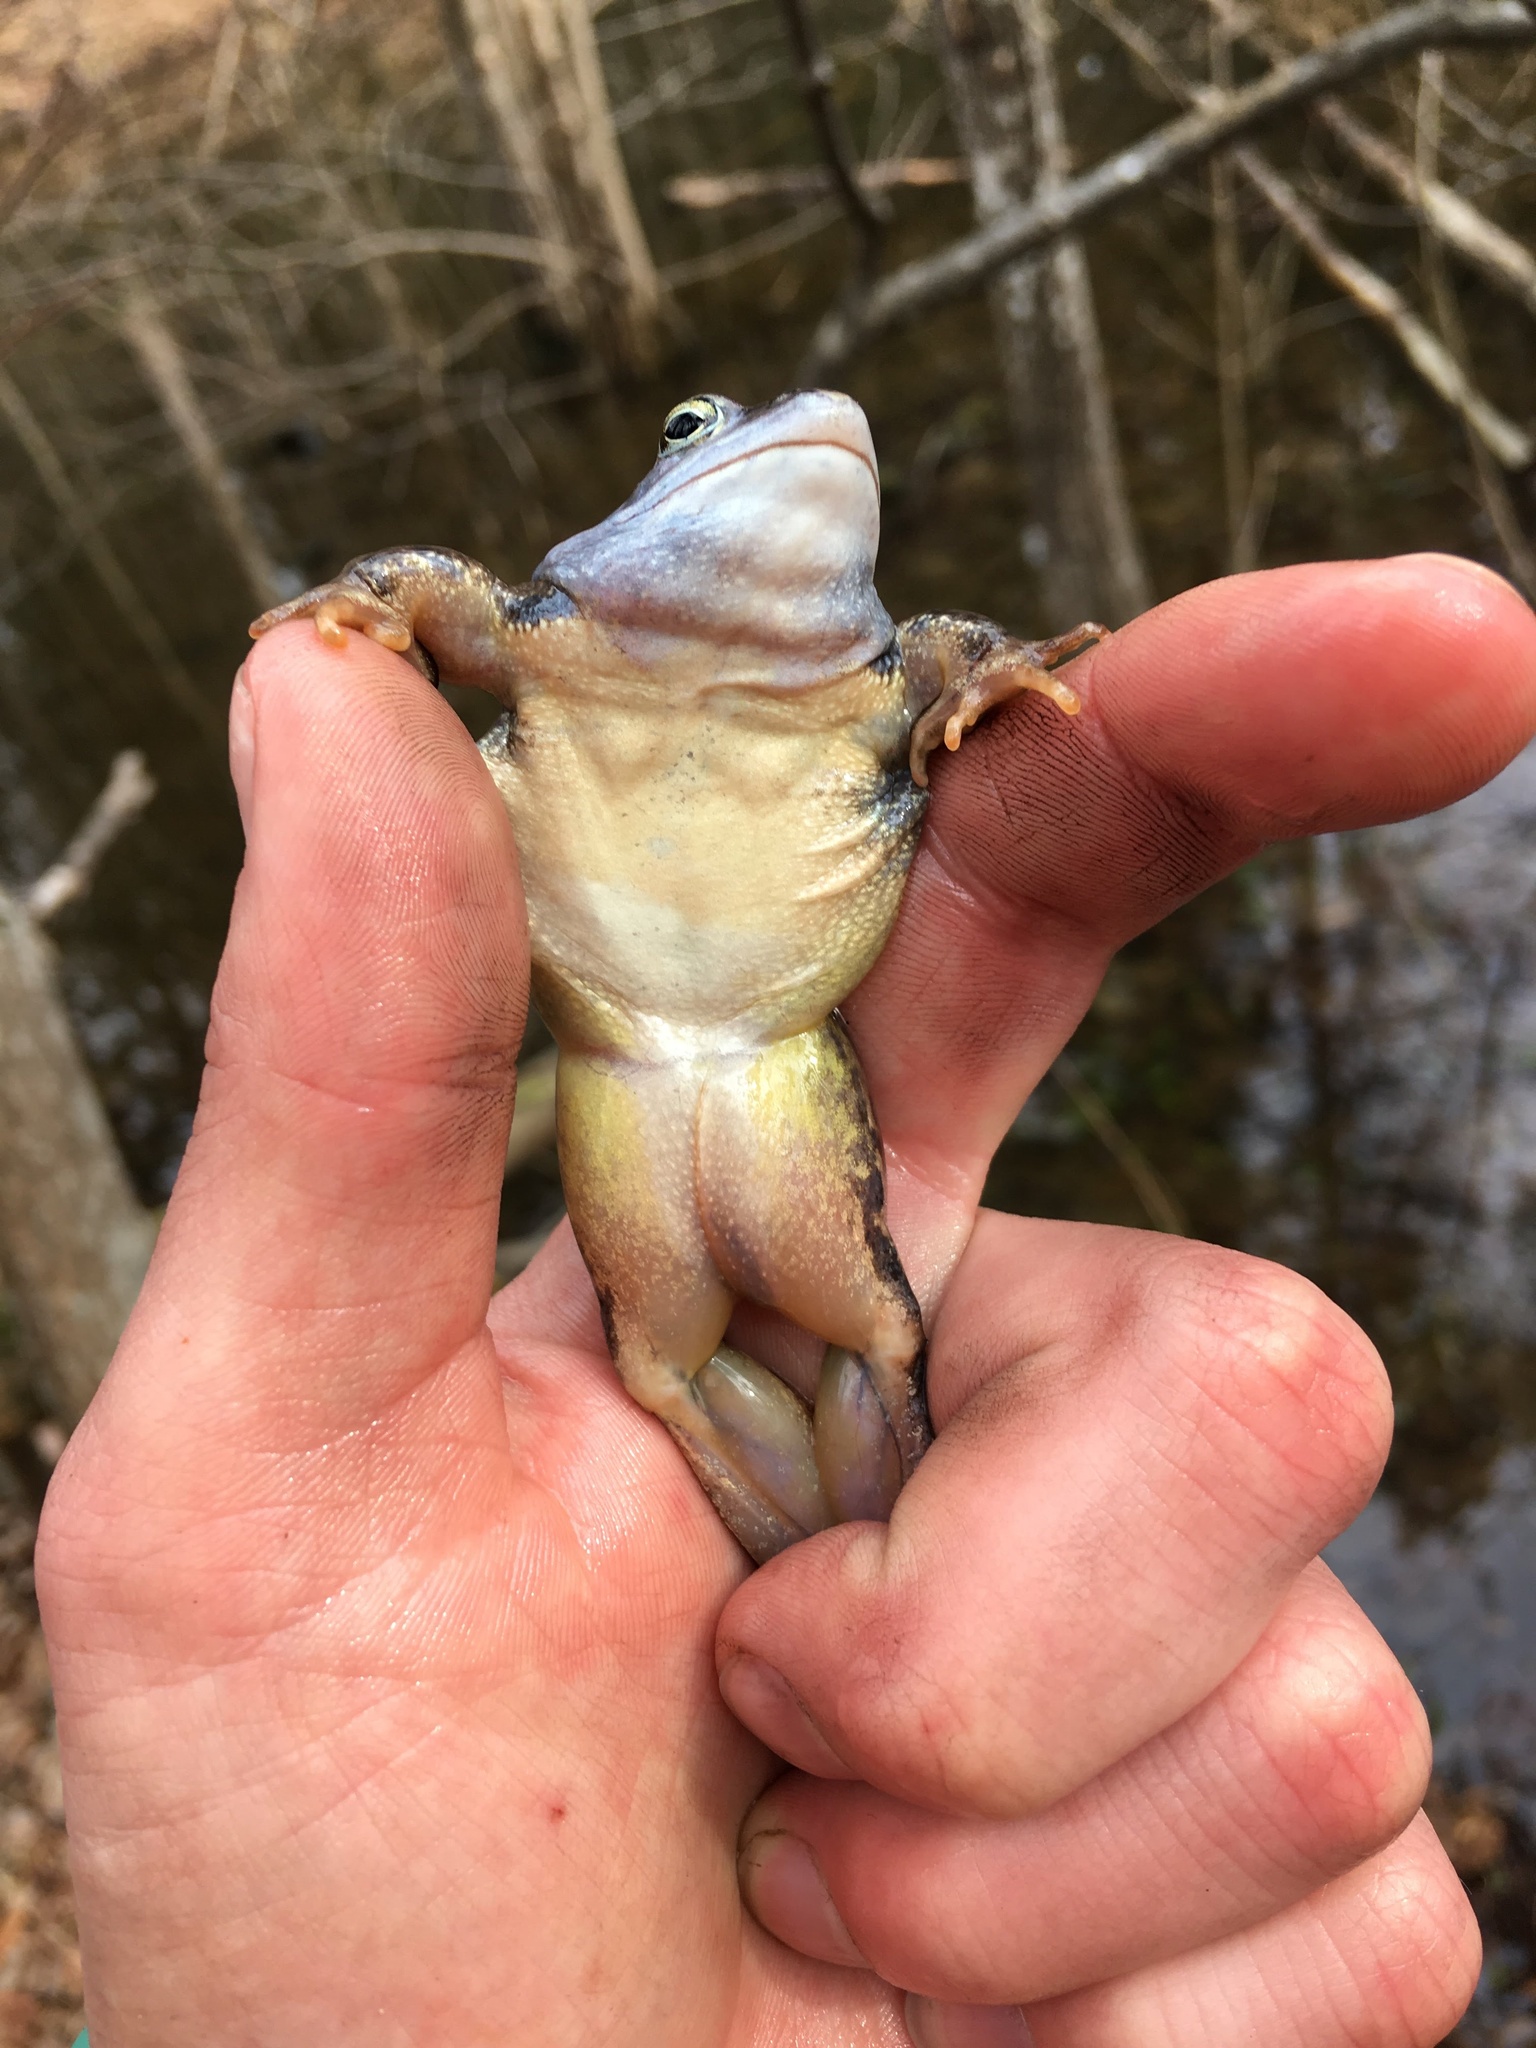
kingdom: Animalia
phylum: Chordata
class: Amphibia
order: Anura
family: Ranidae
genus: Rana
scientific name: Rana arvalis
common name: Moor frog
